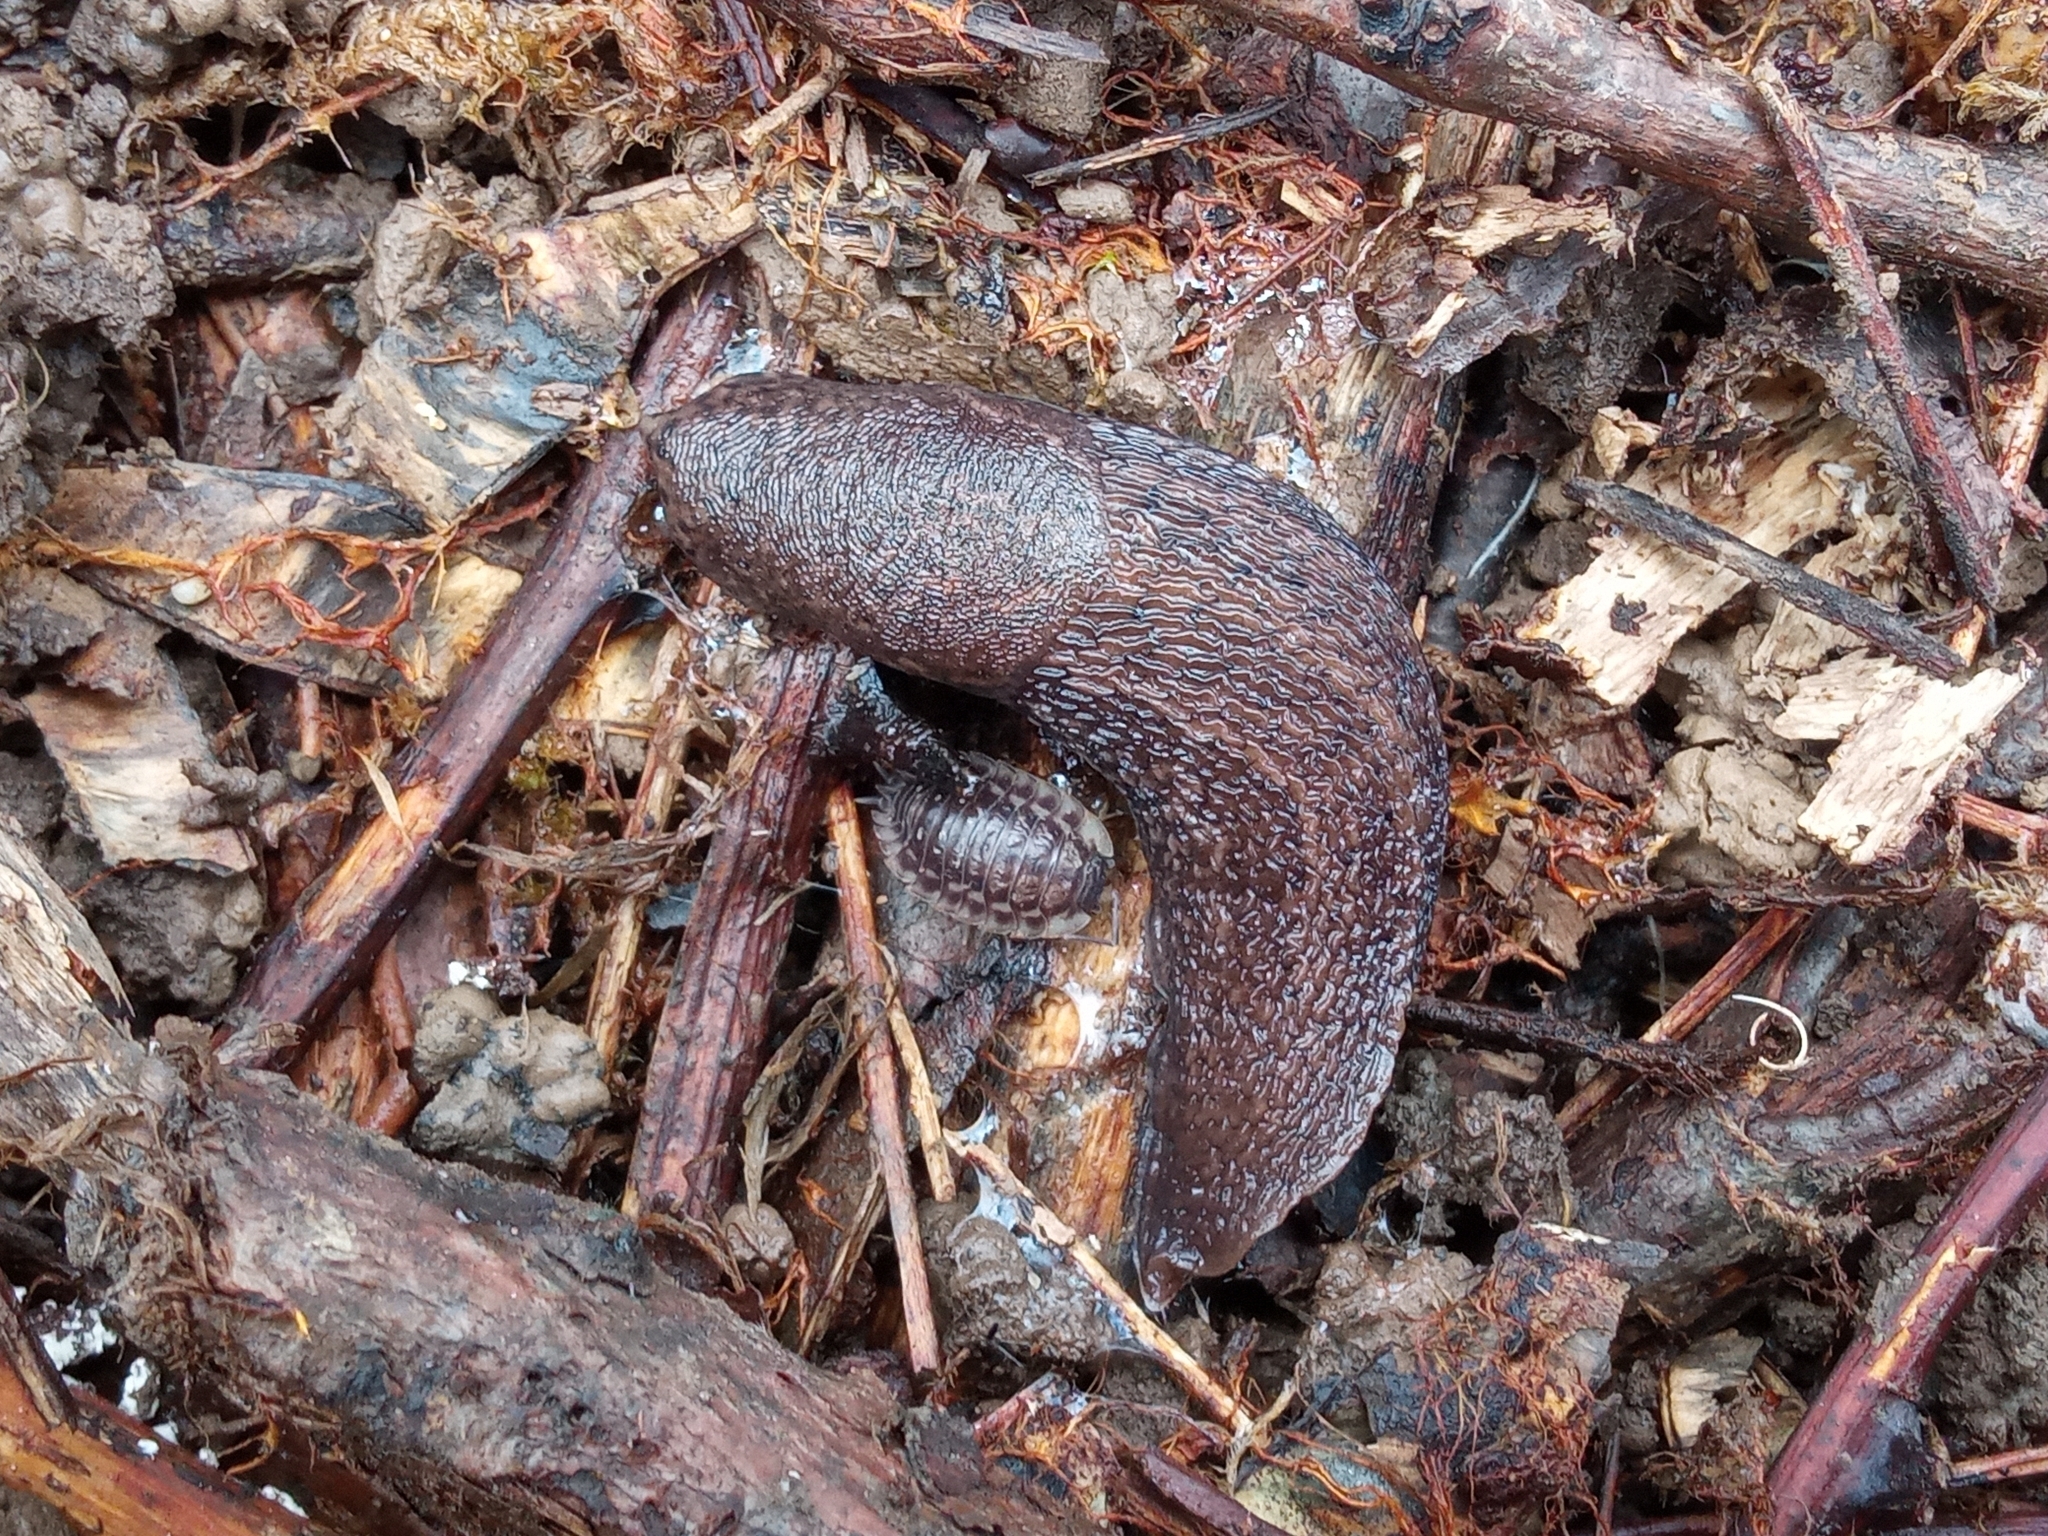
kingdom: Animalia
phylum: Mollusca
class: Gastropoda
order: Stylommatophora
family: Limacidae
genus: Limax
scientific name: Limax maximus
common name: Great grey slug
